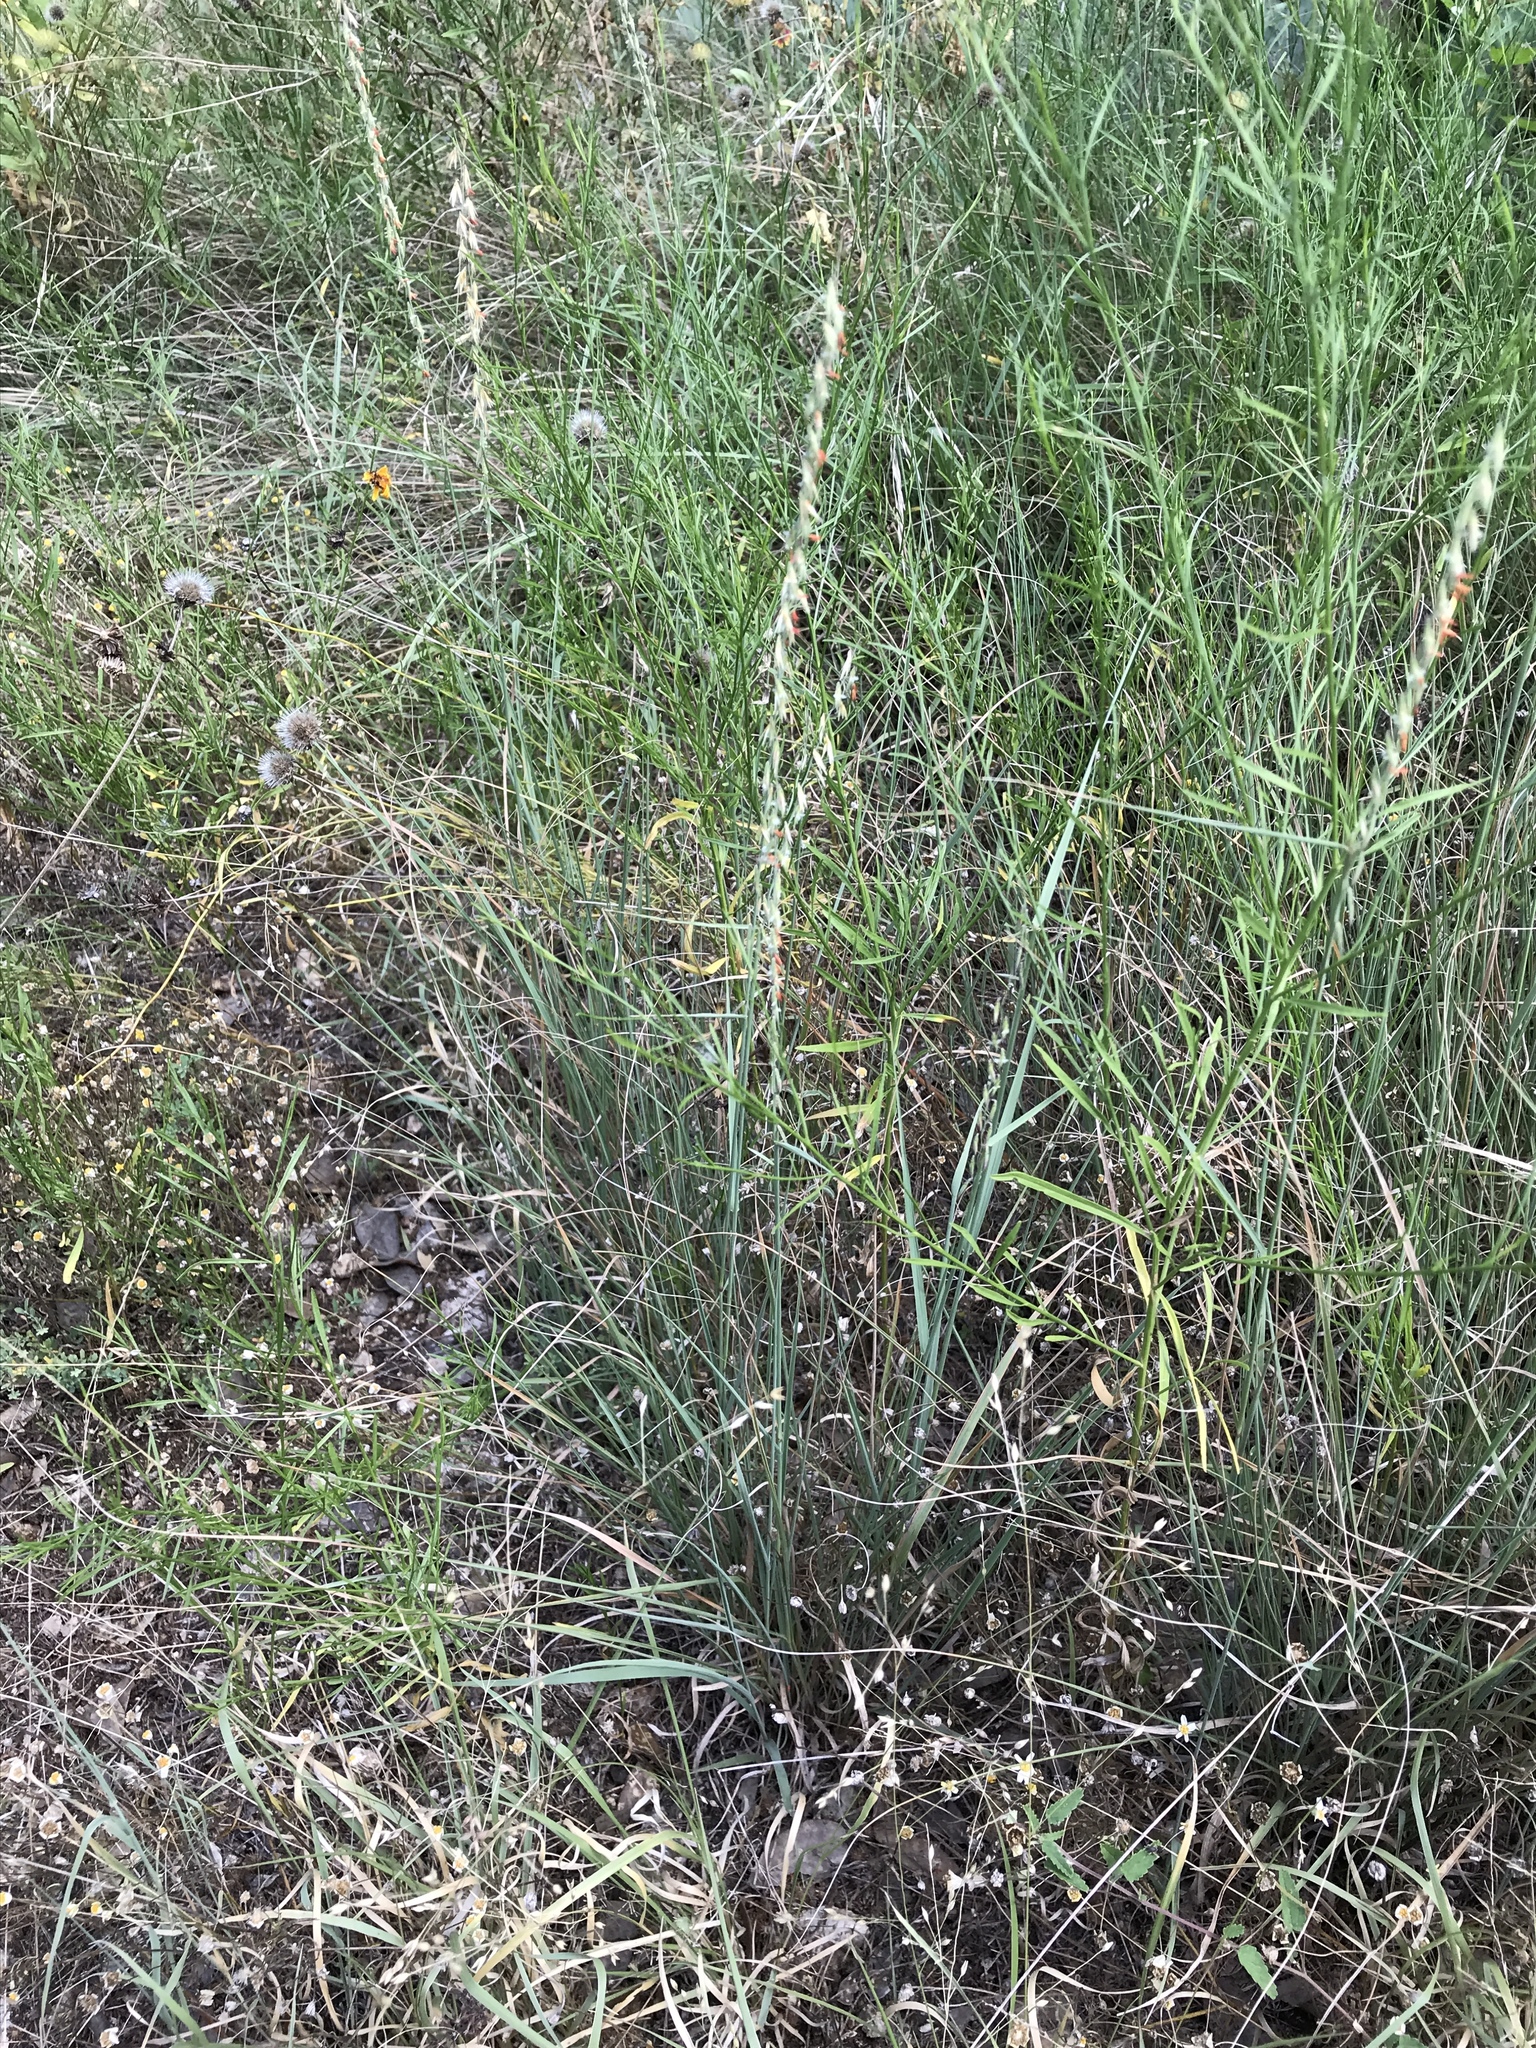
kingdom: Plantae
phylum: Tracheophyta
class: Liliopsida
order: Poales
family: Poaceae
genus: Bouteloua
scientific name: Bouteloua curtipendula
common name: Side-oats grama
